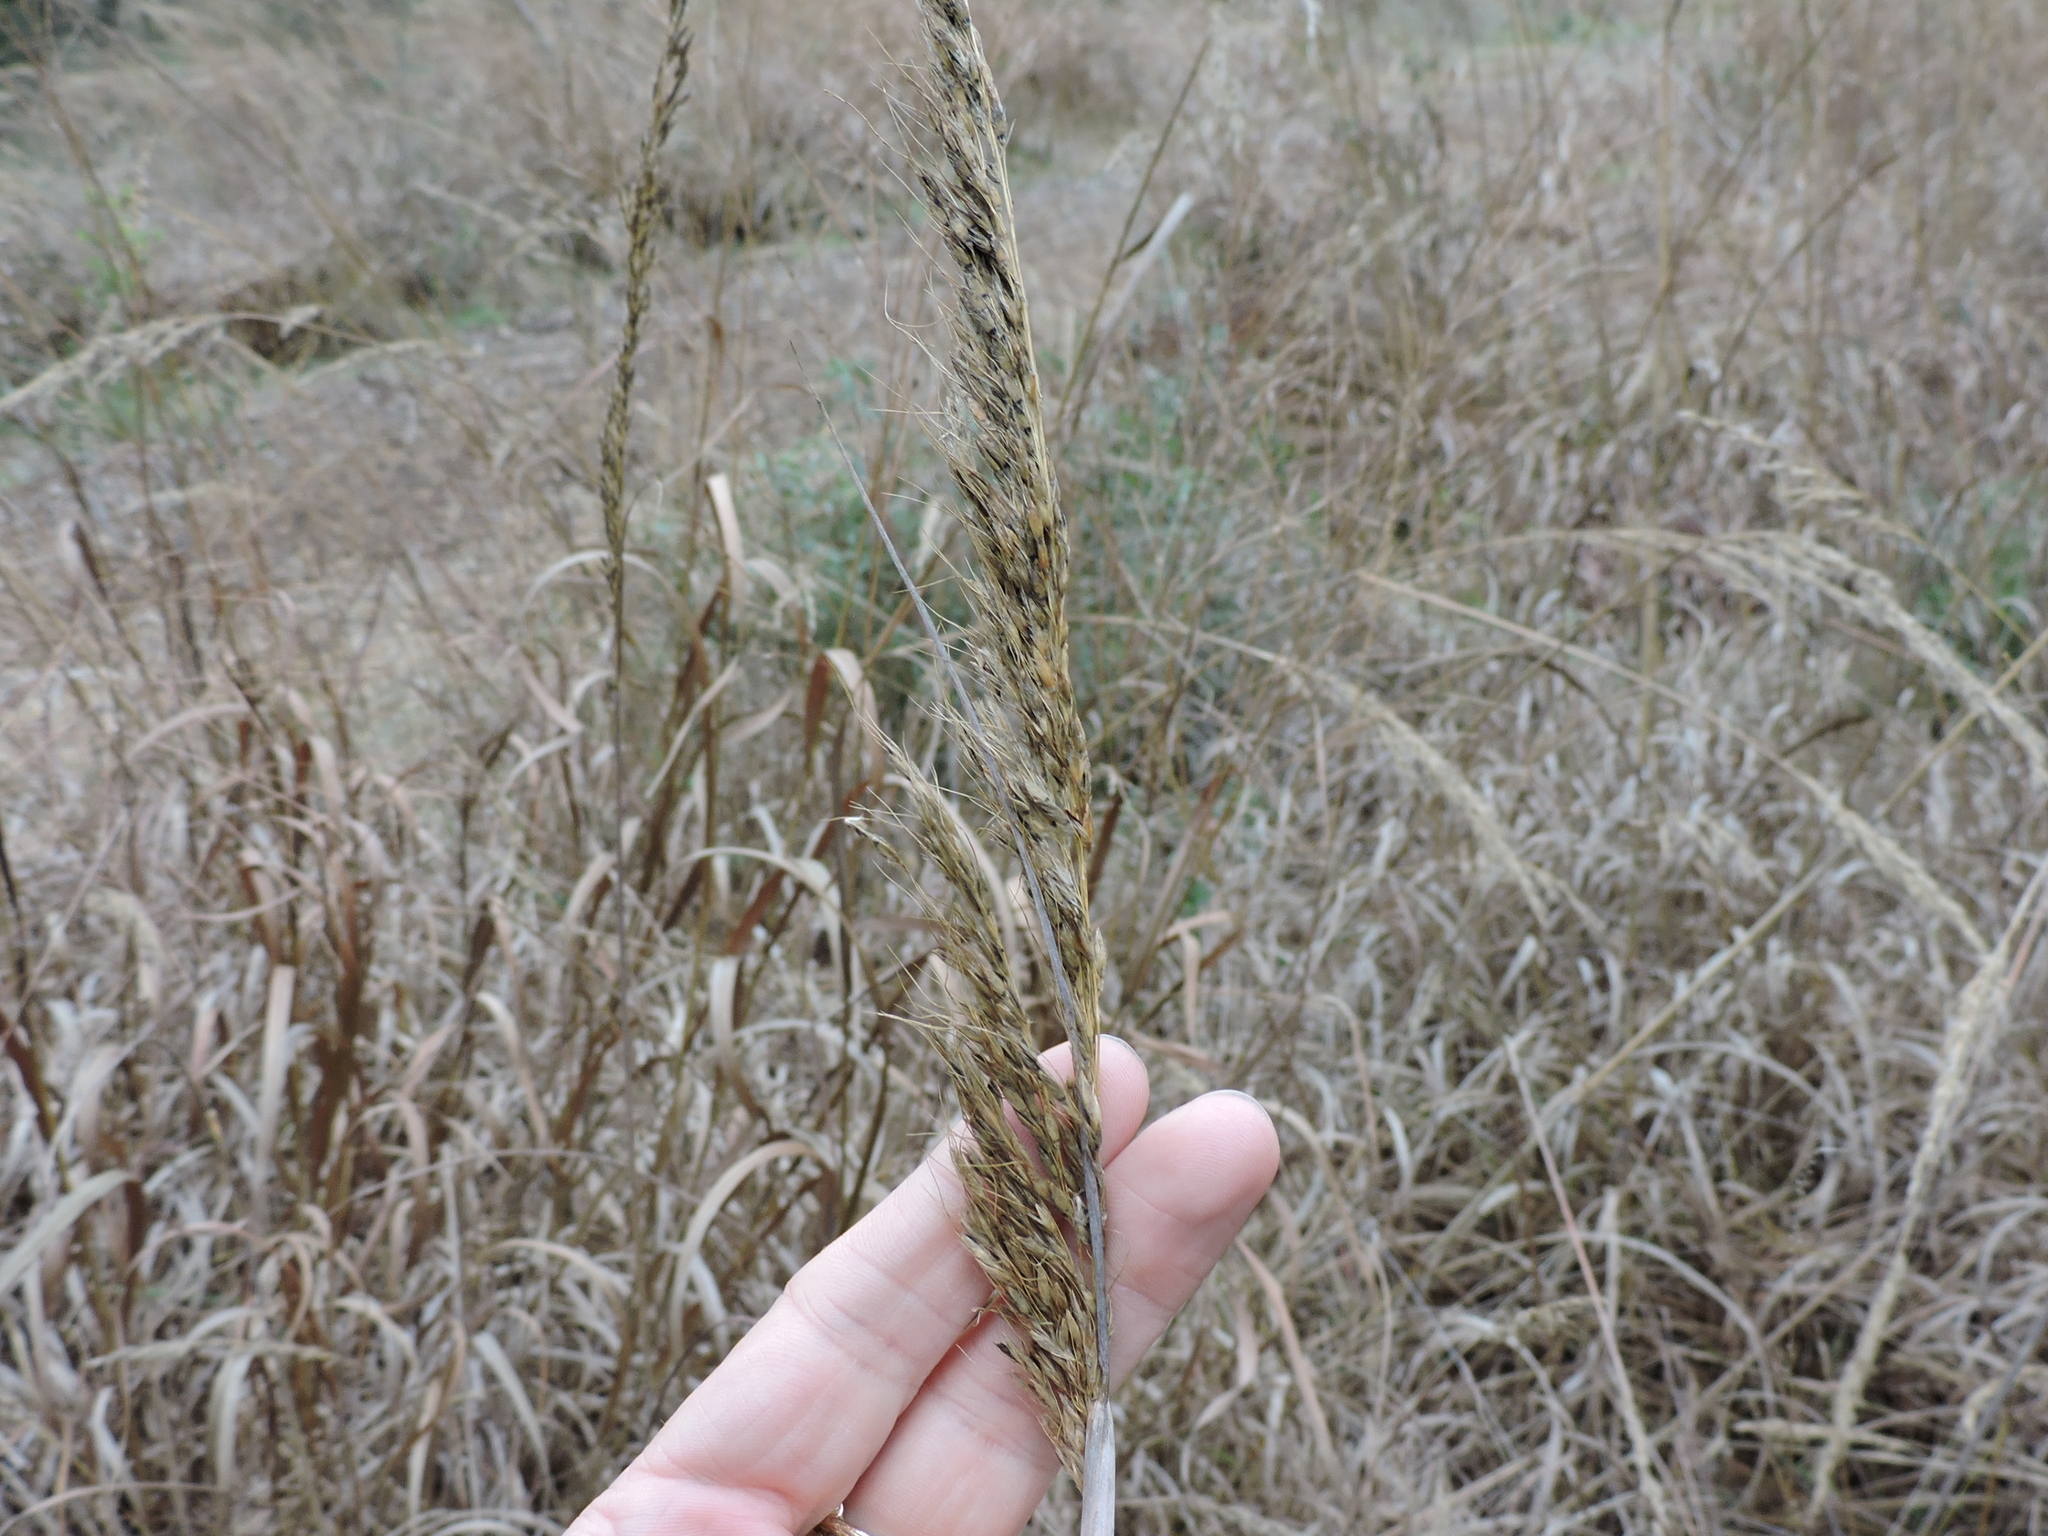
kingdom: Plantae
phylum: Tracheophyta
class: Liliopsida
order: Poales
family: Poaceae
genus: Sorghastrum
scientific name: Sorghastrum nutans
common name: Indian grass
